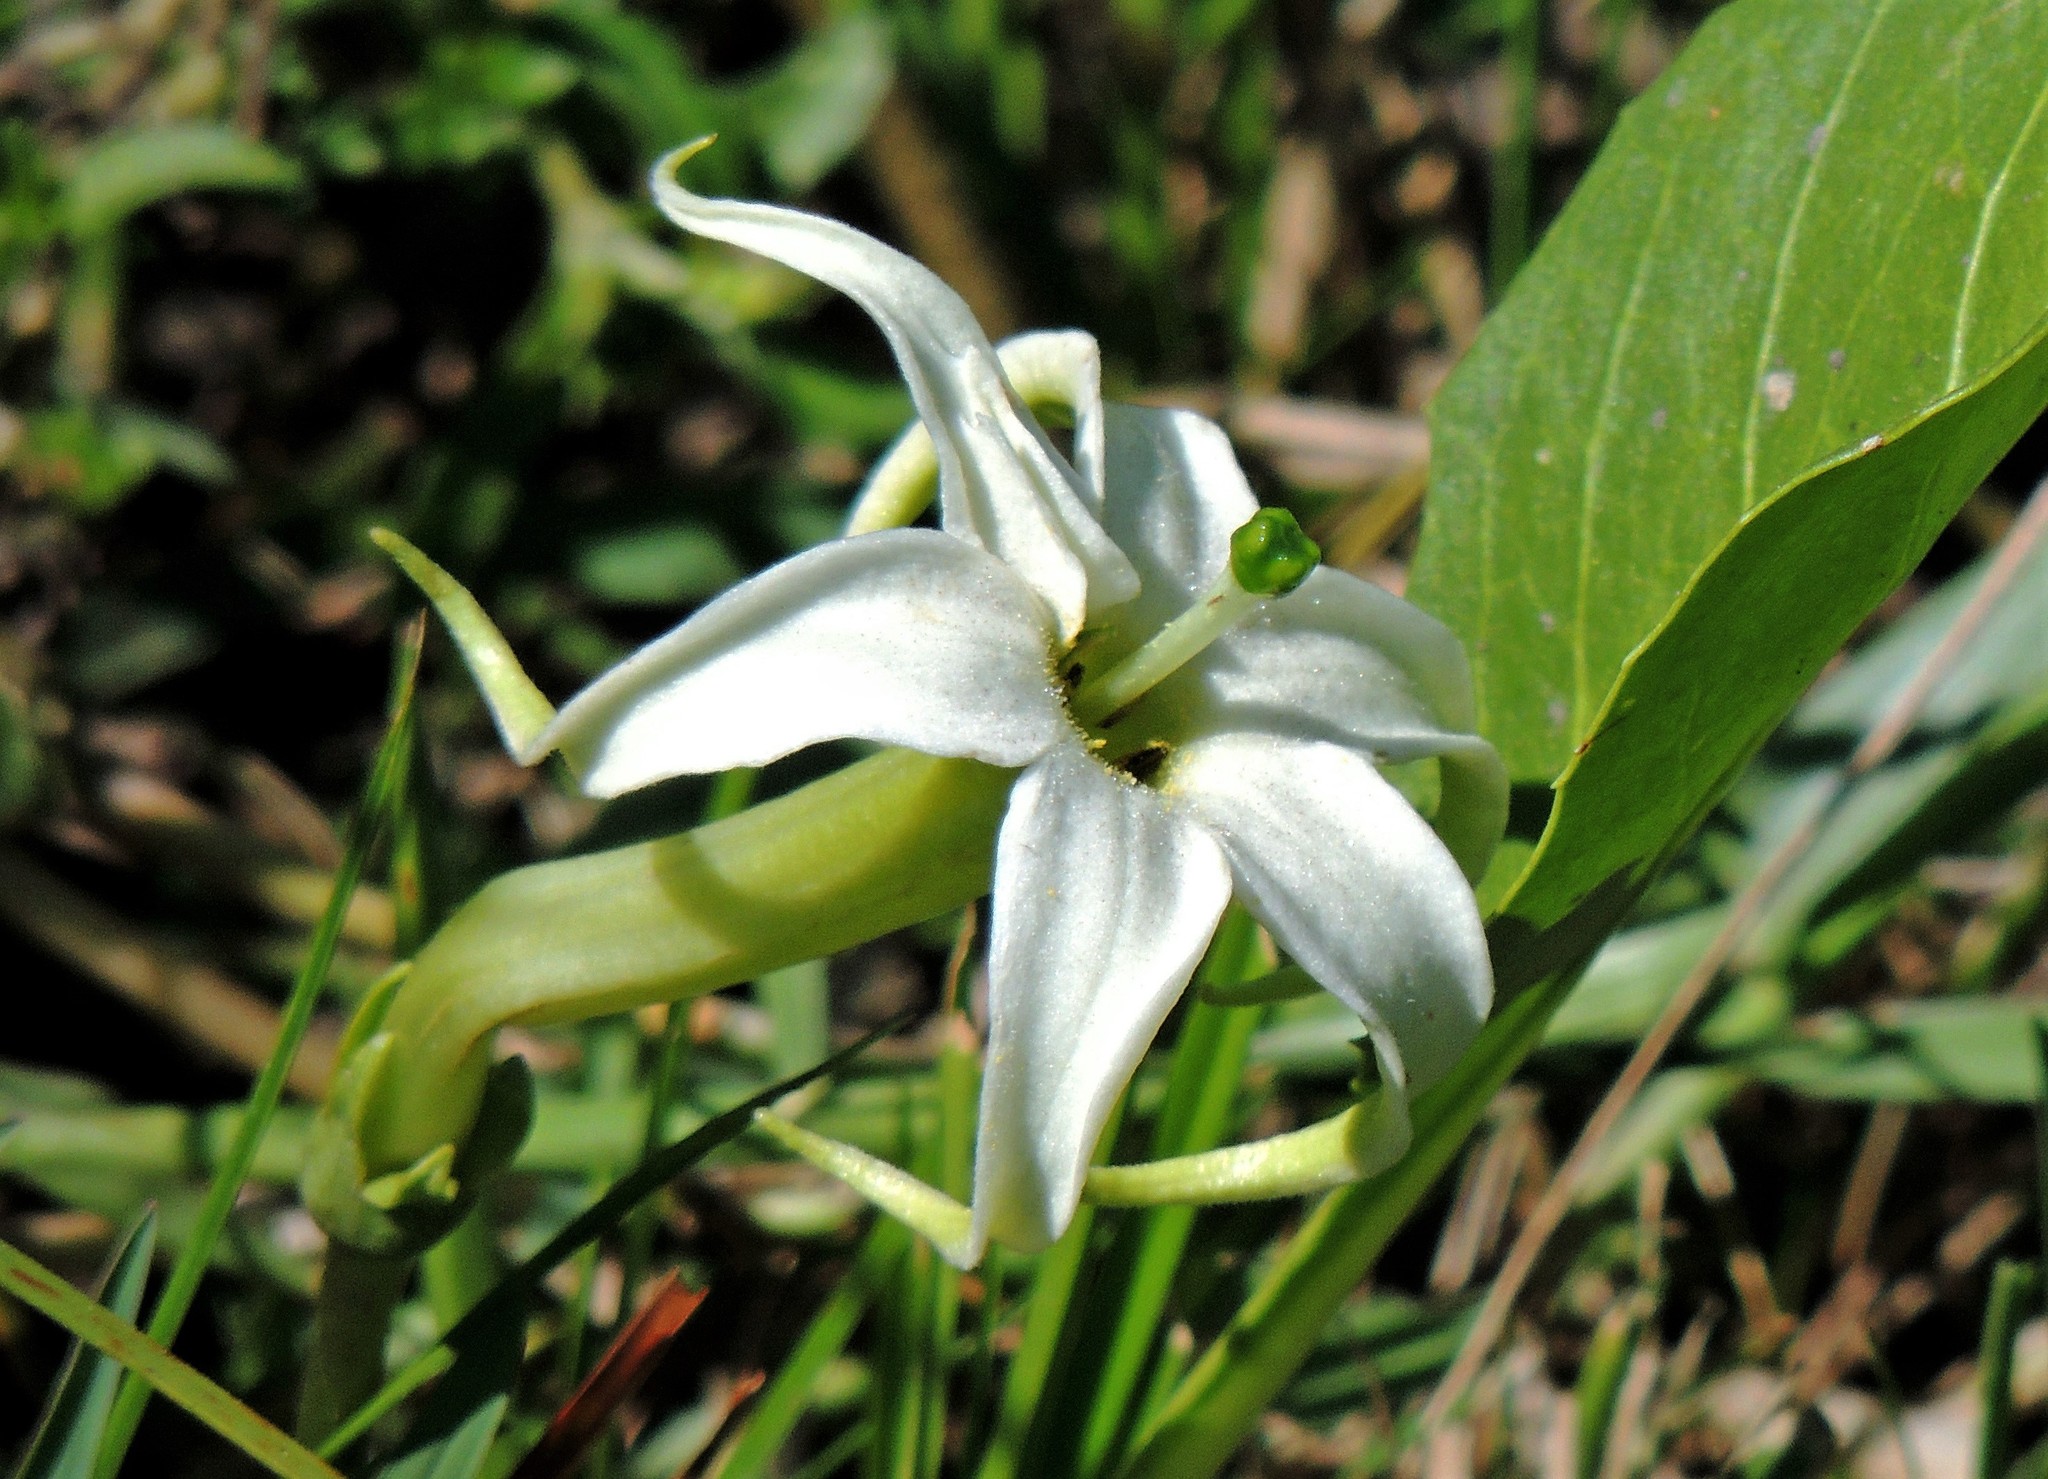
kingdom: Plantae
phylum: Tracheophyta
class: Magnoliopsida
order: Solanales
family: Solanaceae
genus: Jaborosa
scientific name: Jaborosa integrifolia
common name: Springblossom
